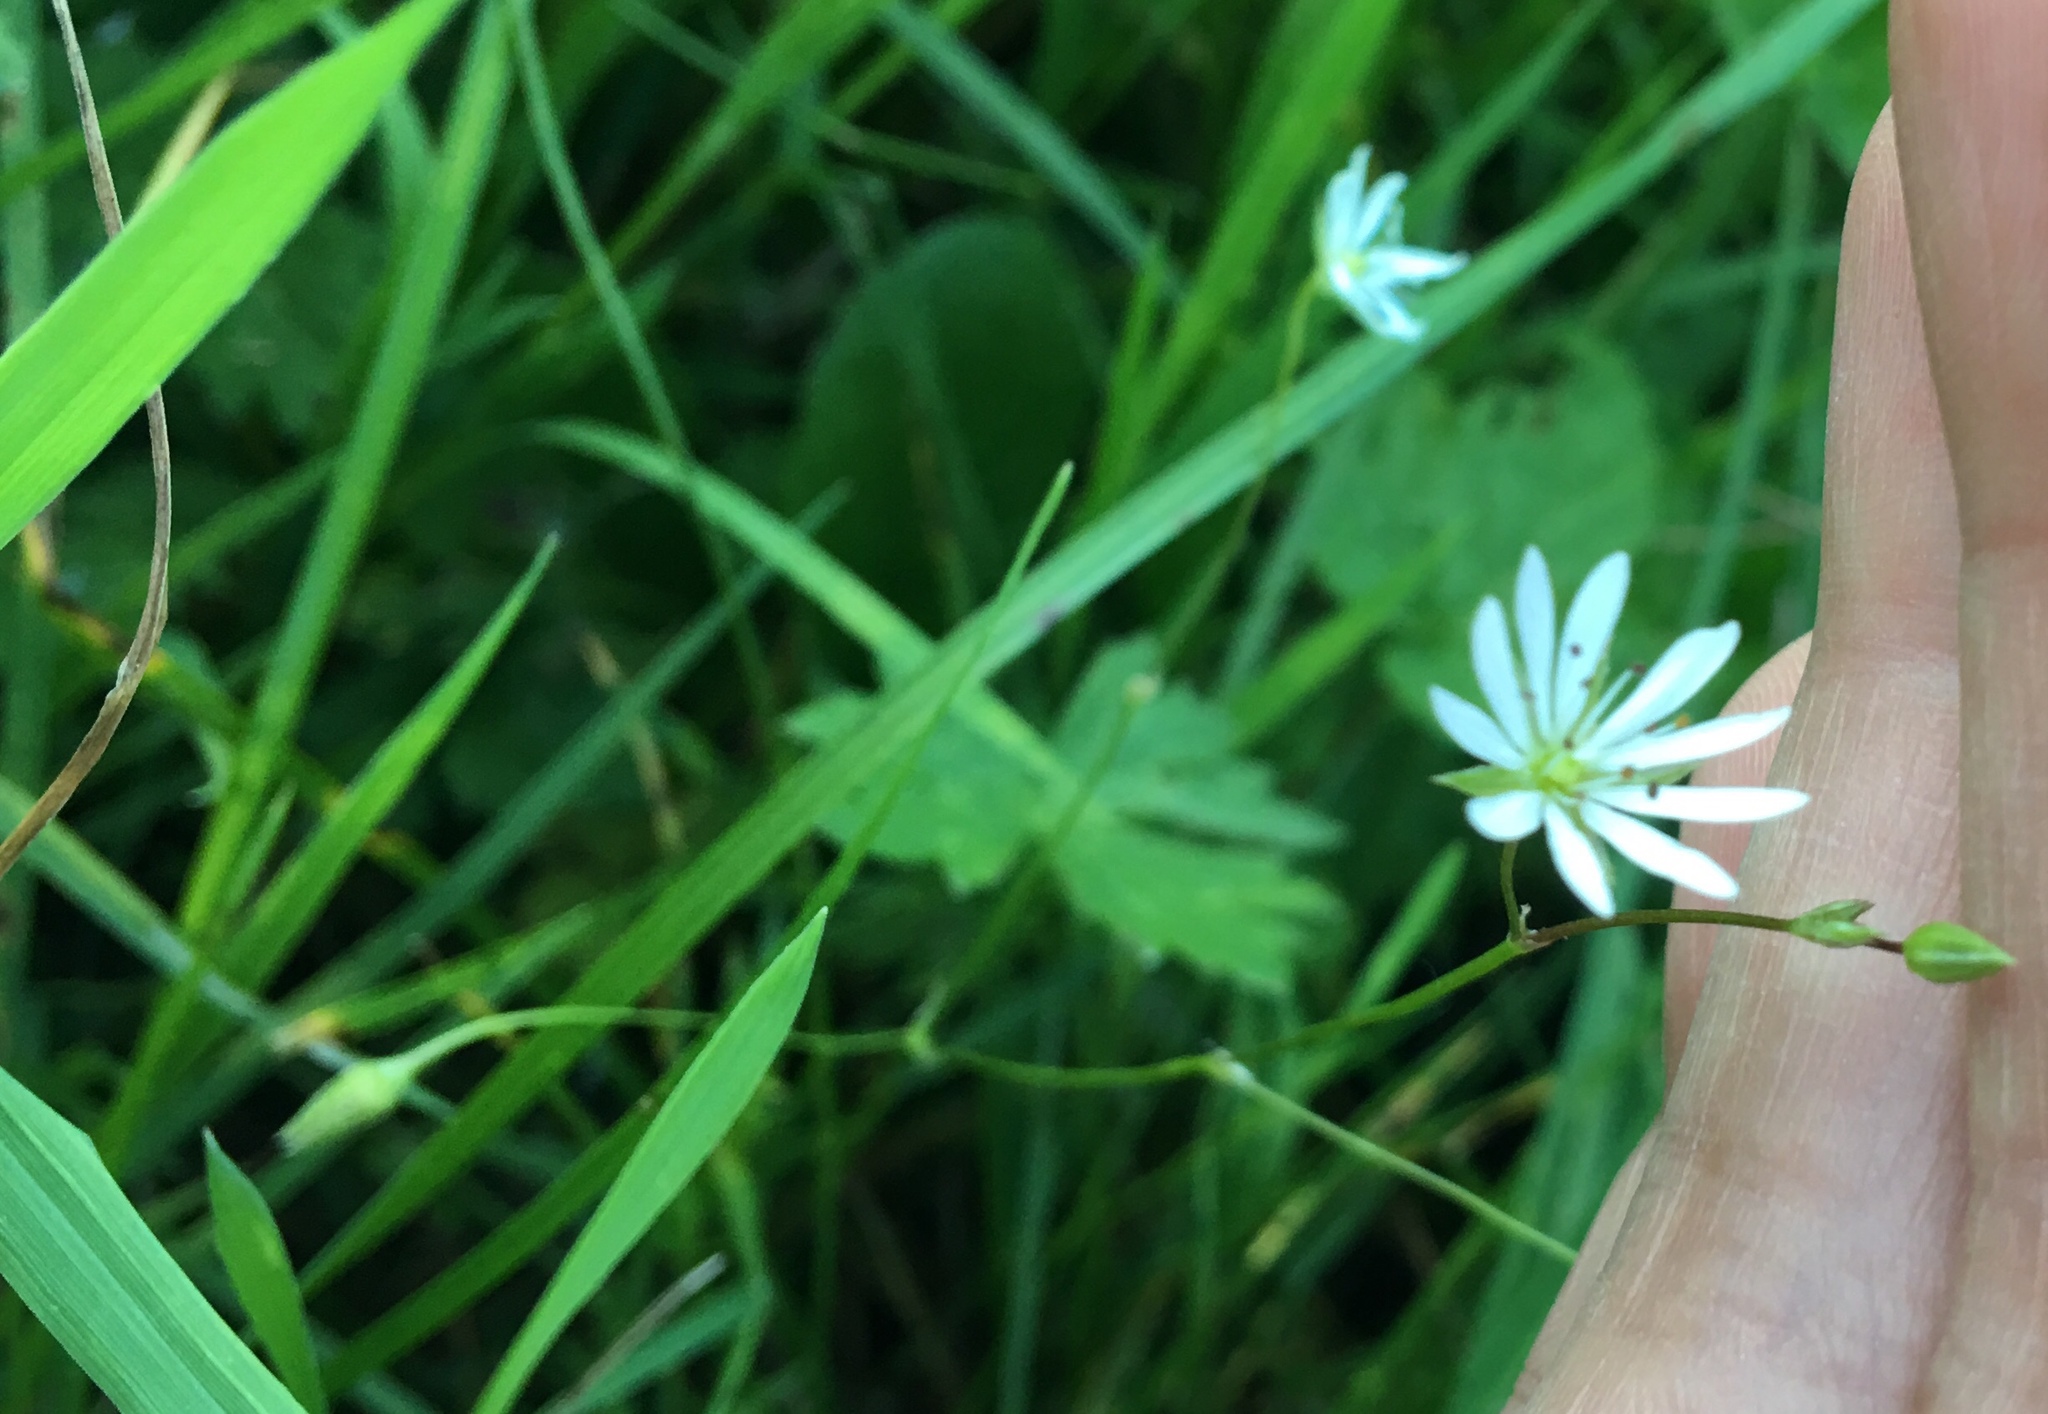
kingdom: Plantae
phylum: Tracheophyta
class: Magnoliopsida
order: Caryophyllales
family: Caryophyllaceae
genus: Stellaria
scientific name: Stellaria graminea
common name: Grass-like starwort
